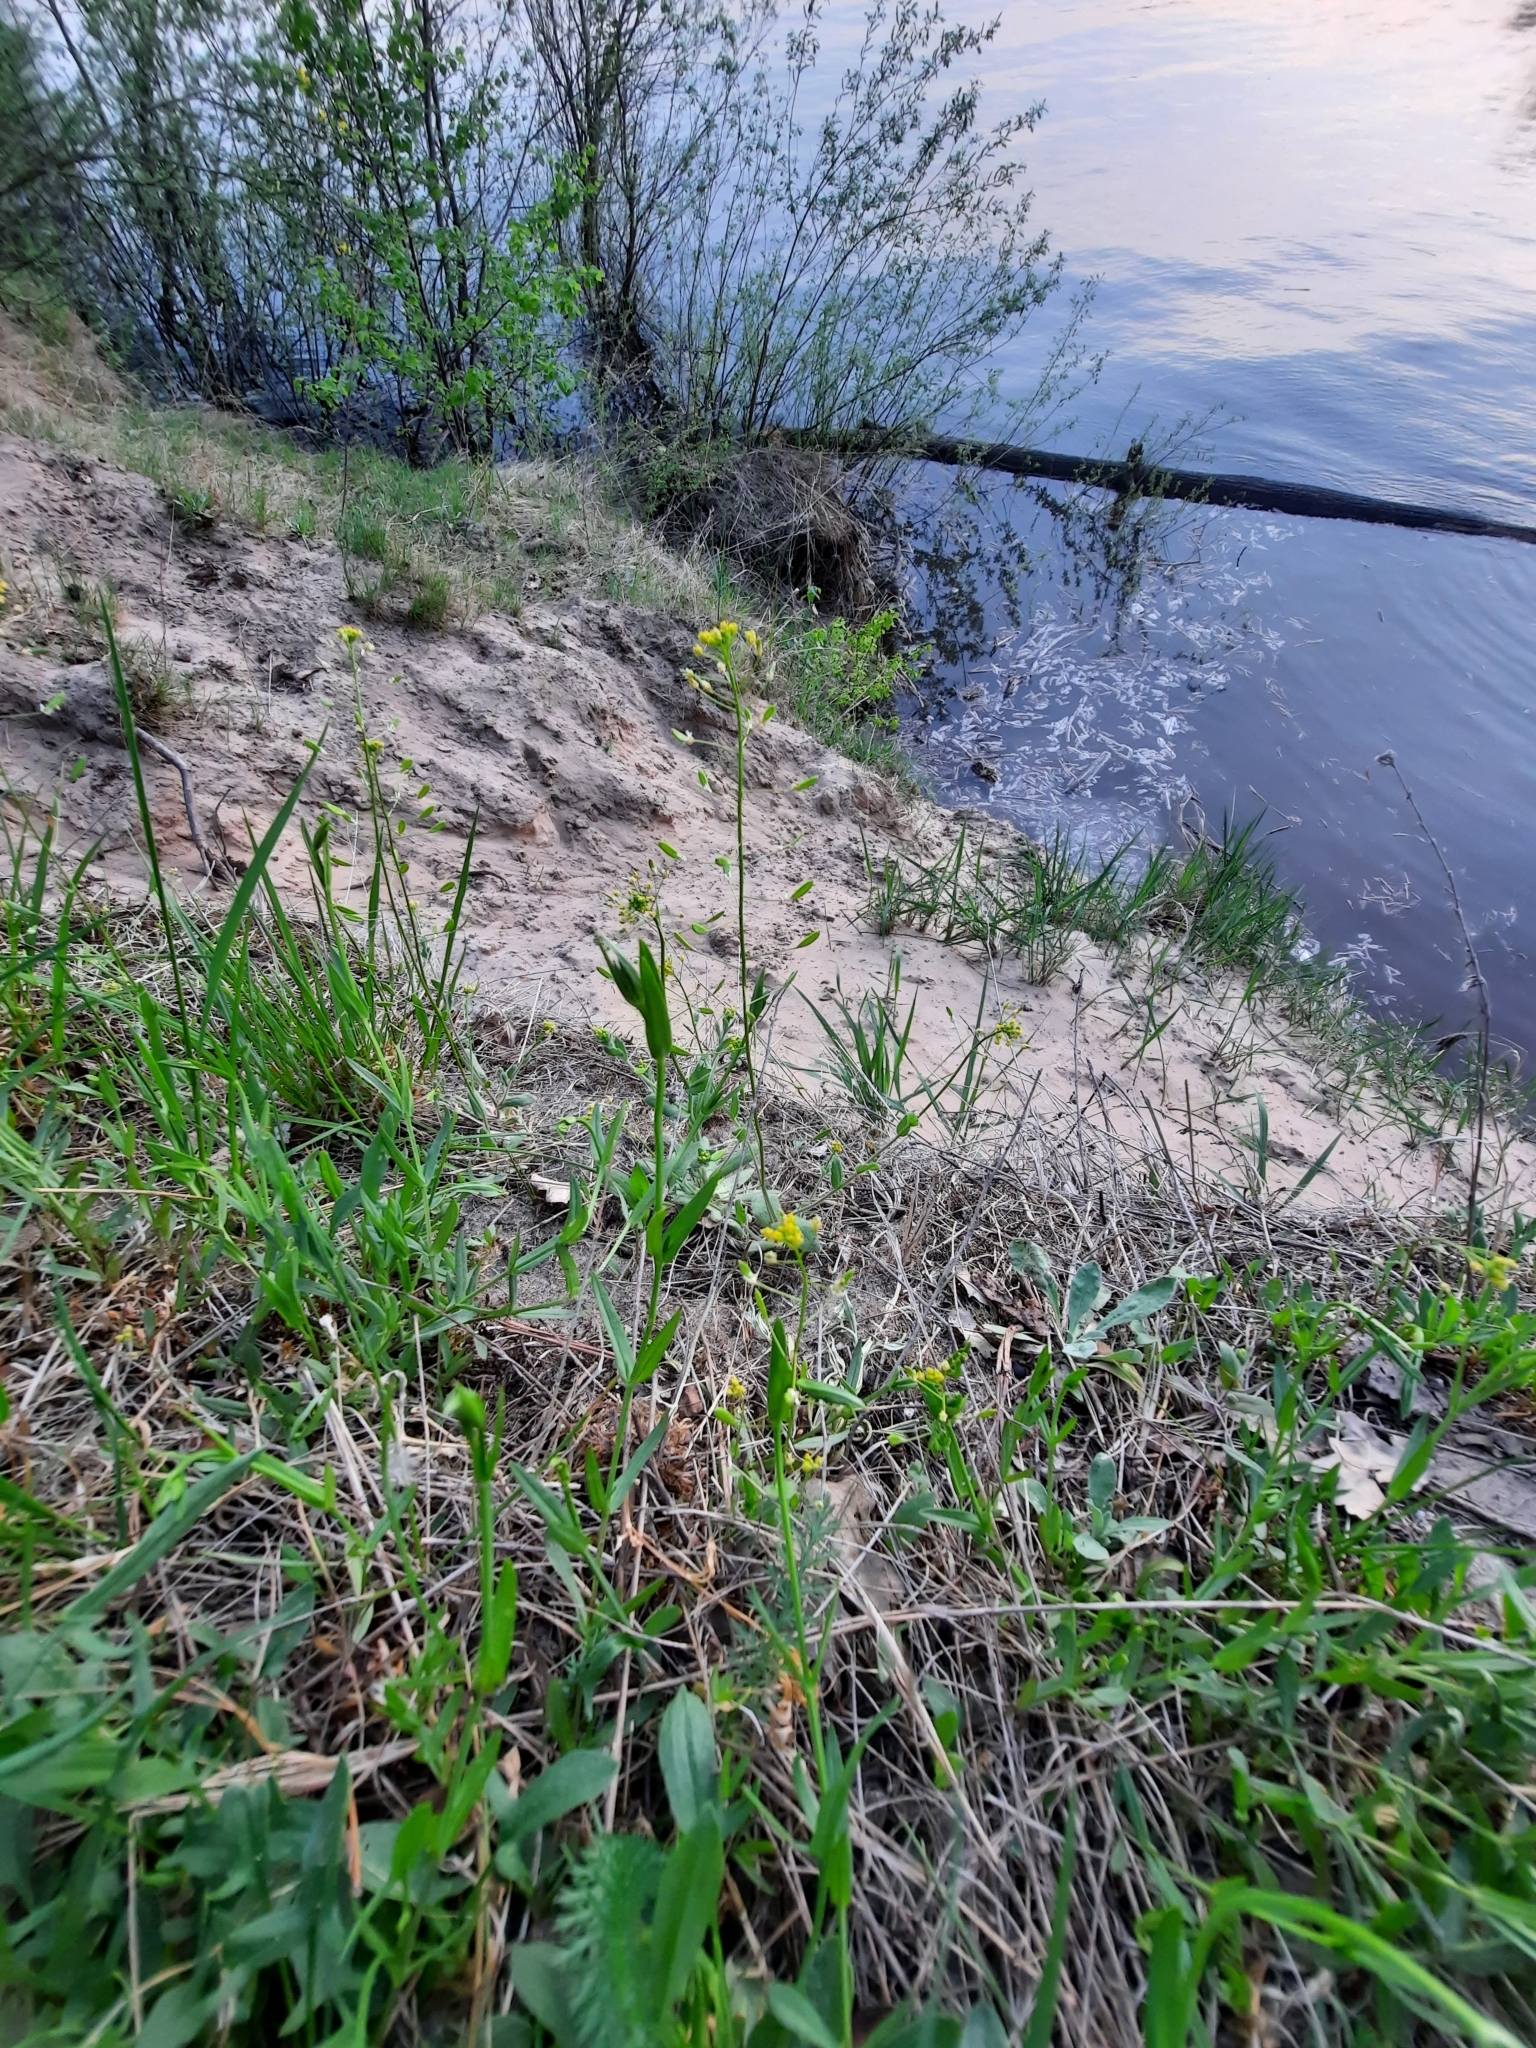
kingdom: Plantae
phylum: Tracheophyta
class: Magnoliopsida
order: Brassicales
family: Brassicaceae
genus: Draba
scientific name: Draba nemorosa
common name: Wood whitlow-grass
